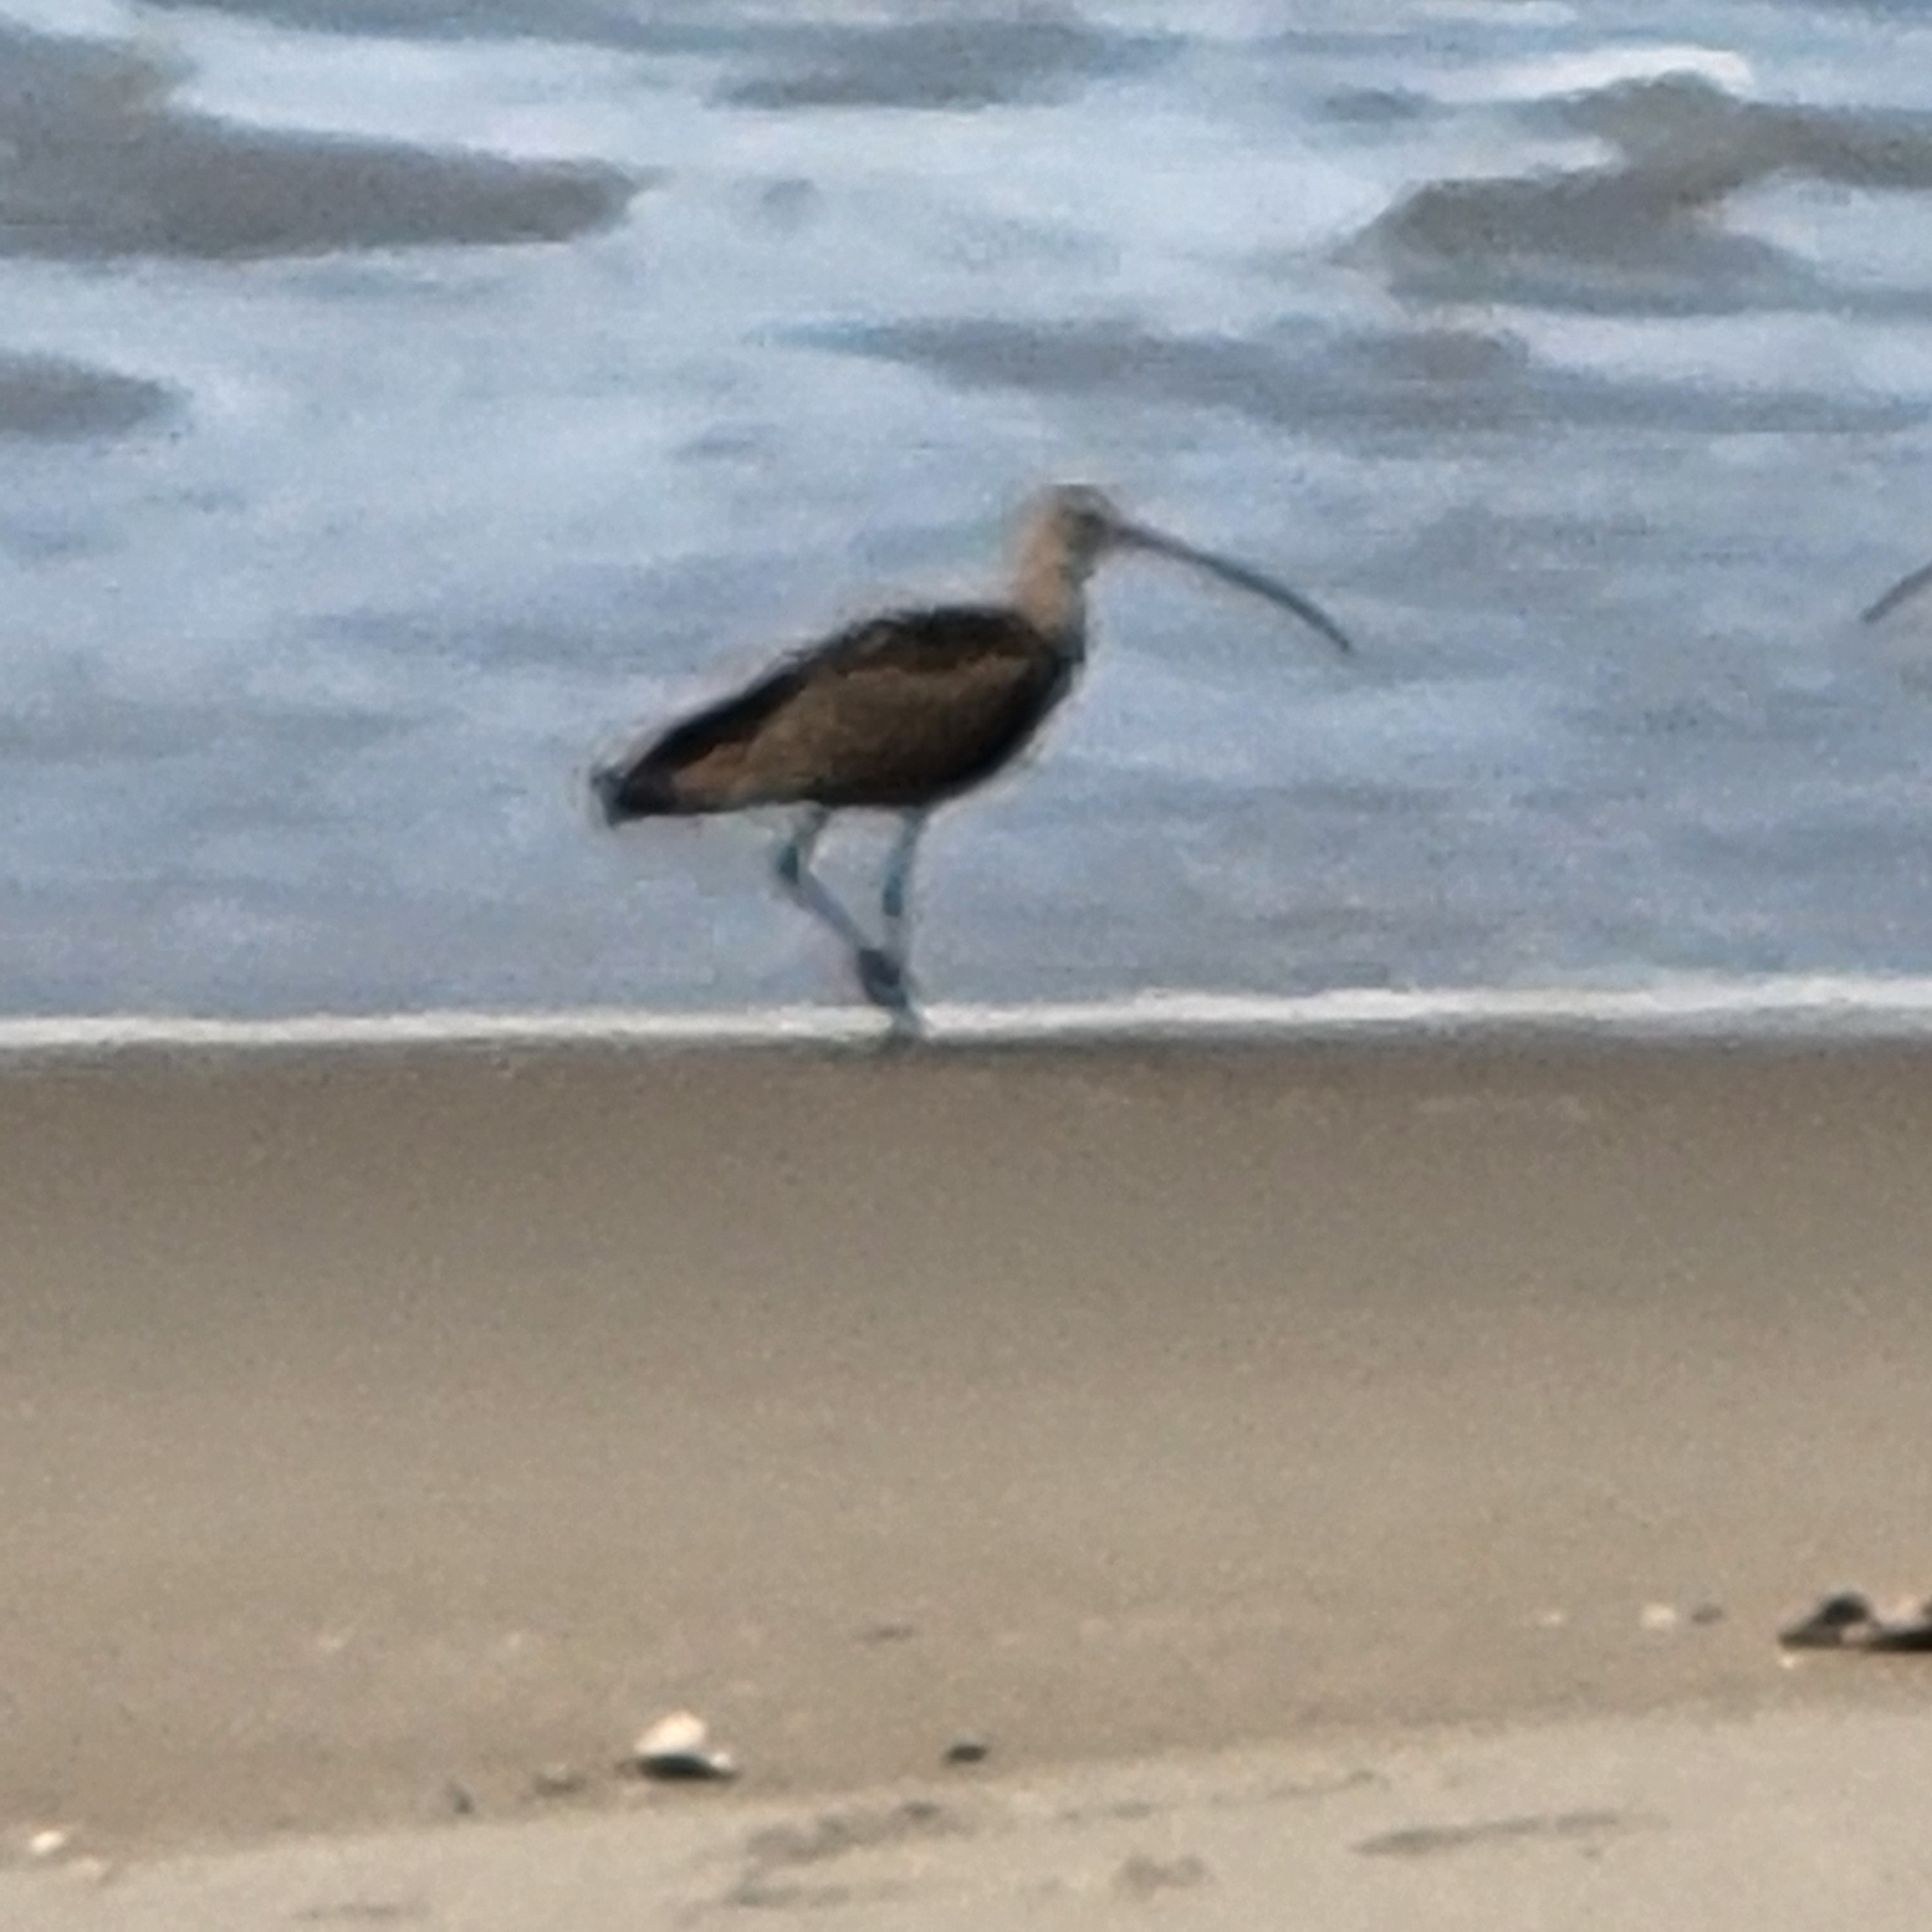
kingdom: Animalia
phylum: Chordata
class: Aves
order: Charadriiformes
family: Scolopacidae
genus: Numenius
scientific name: Numenius americanus
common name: Long-billed curlew
